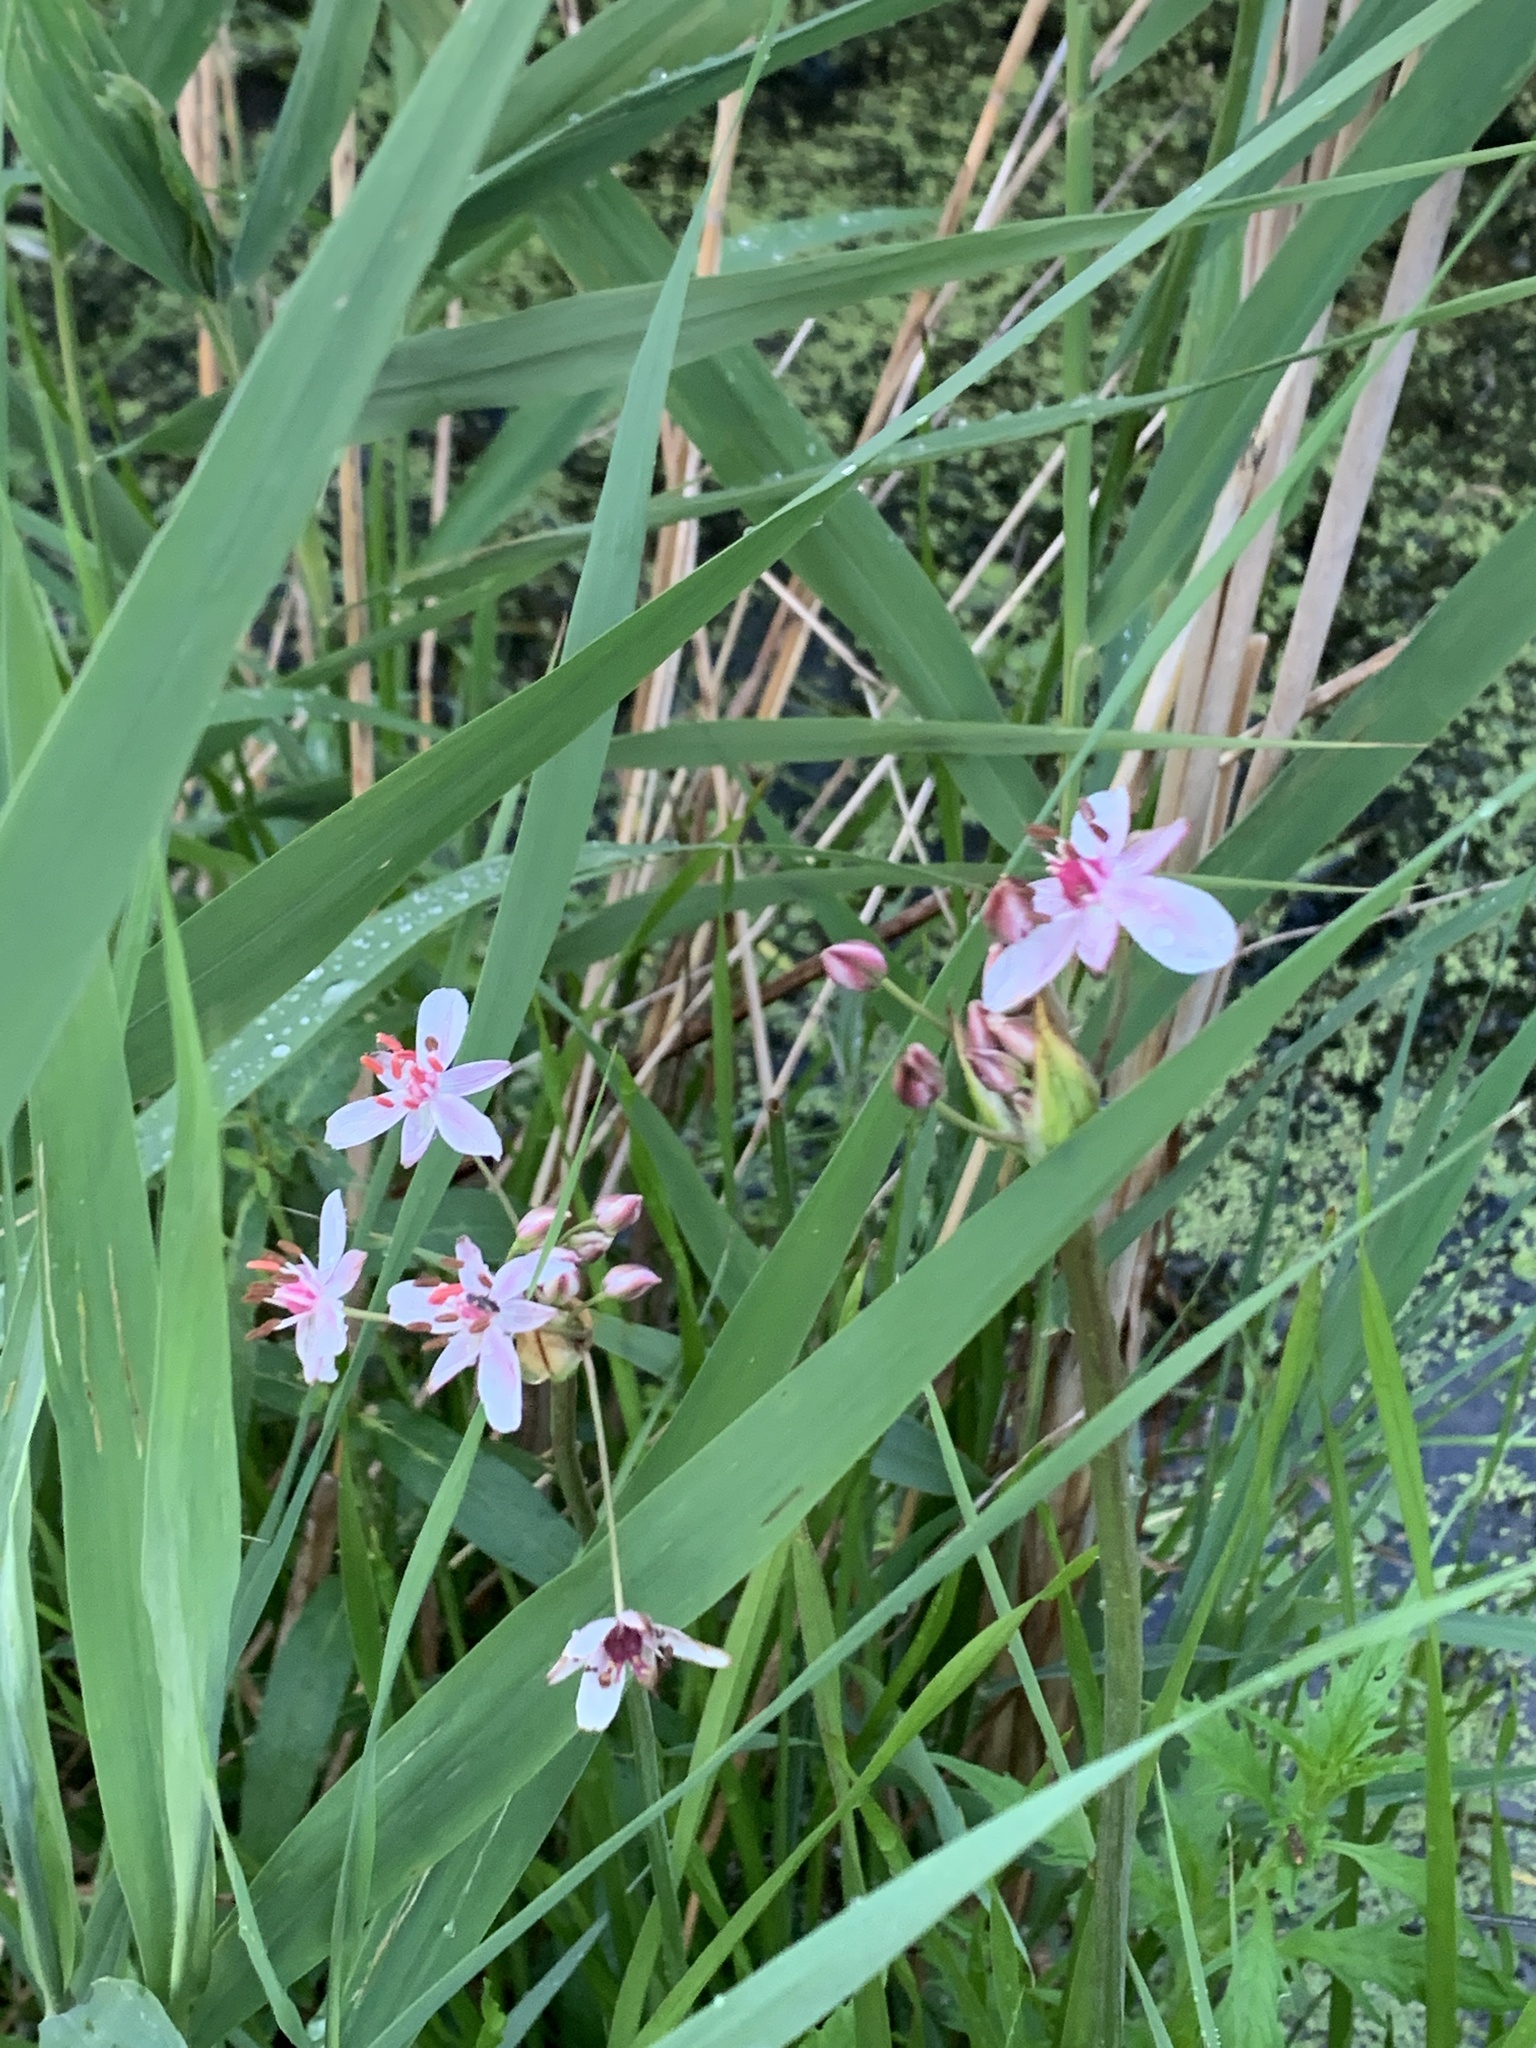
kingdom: Plantae
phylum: Tracheophyta
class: Liliopsida
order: Alismatales
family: Butomaceae
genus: Butomus
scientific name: Butomus umbellatus
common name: Flowering-rush
